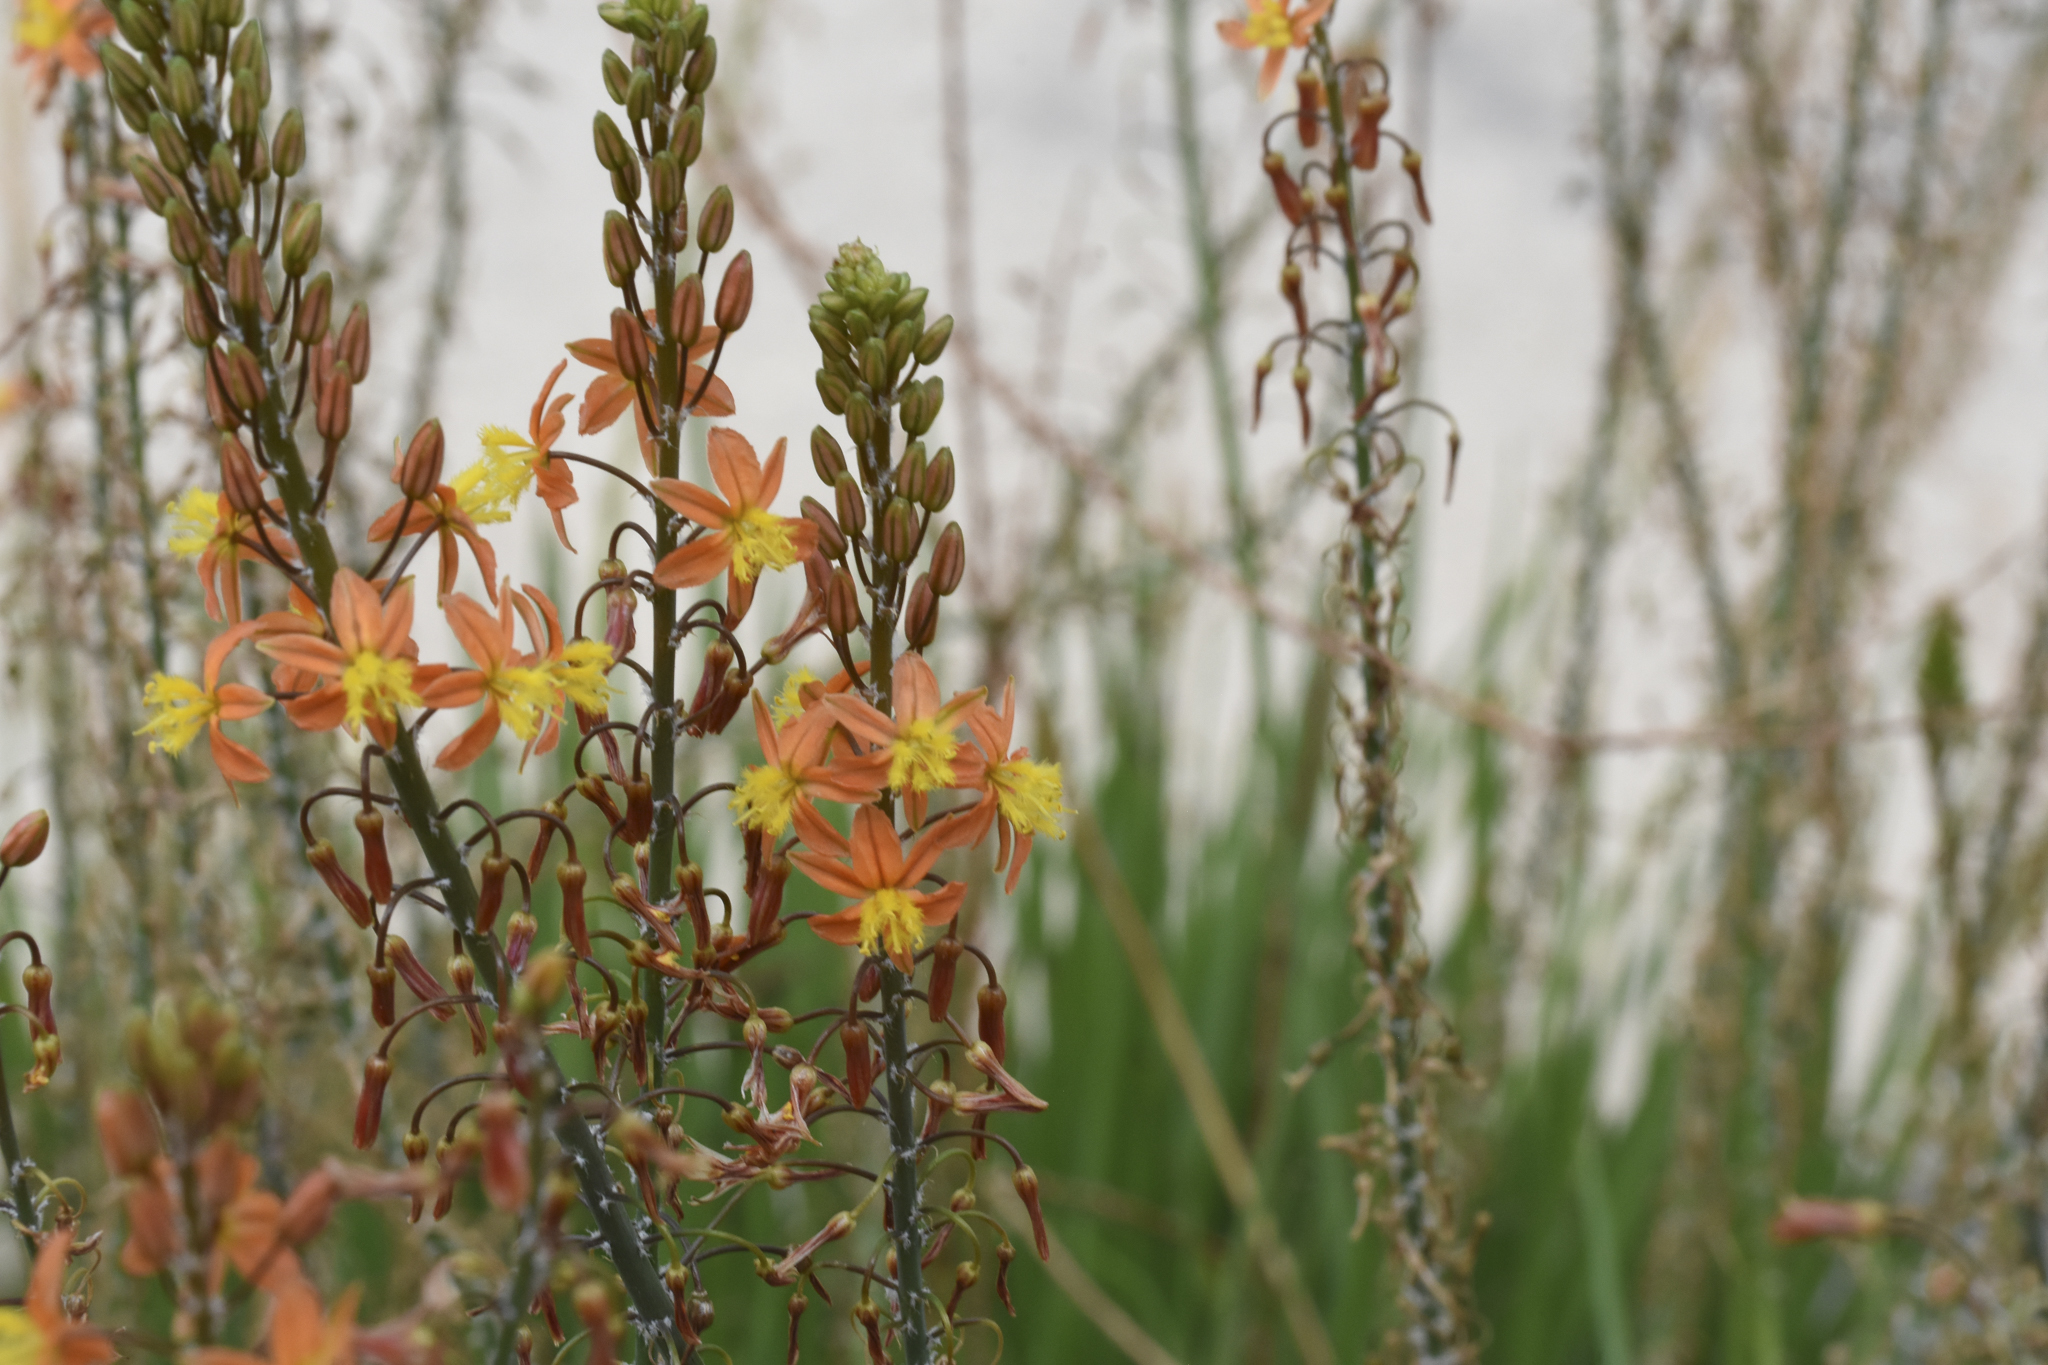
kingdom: Plantae
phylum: Tracheophyta
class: Liliopsida
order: Asparagales
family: Asphodelaceae
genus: Bulbine
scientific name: Bulbine frutescens
